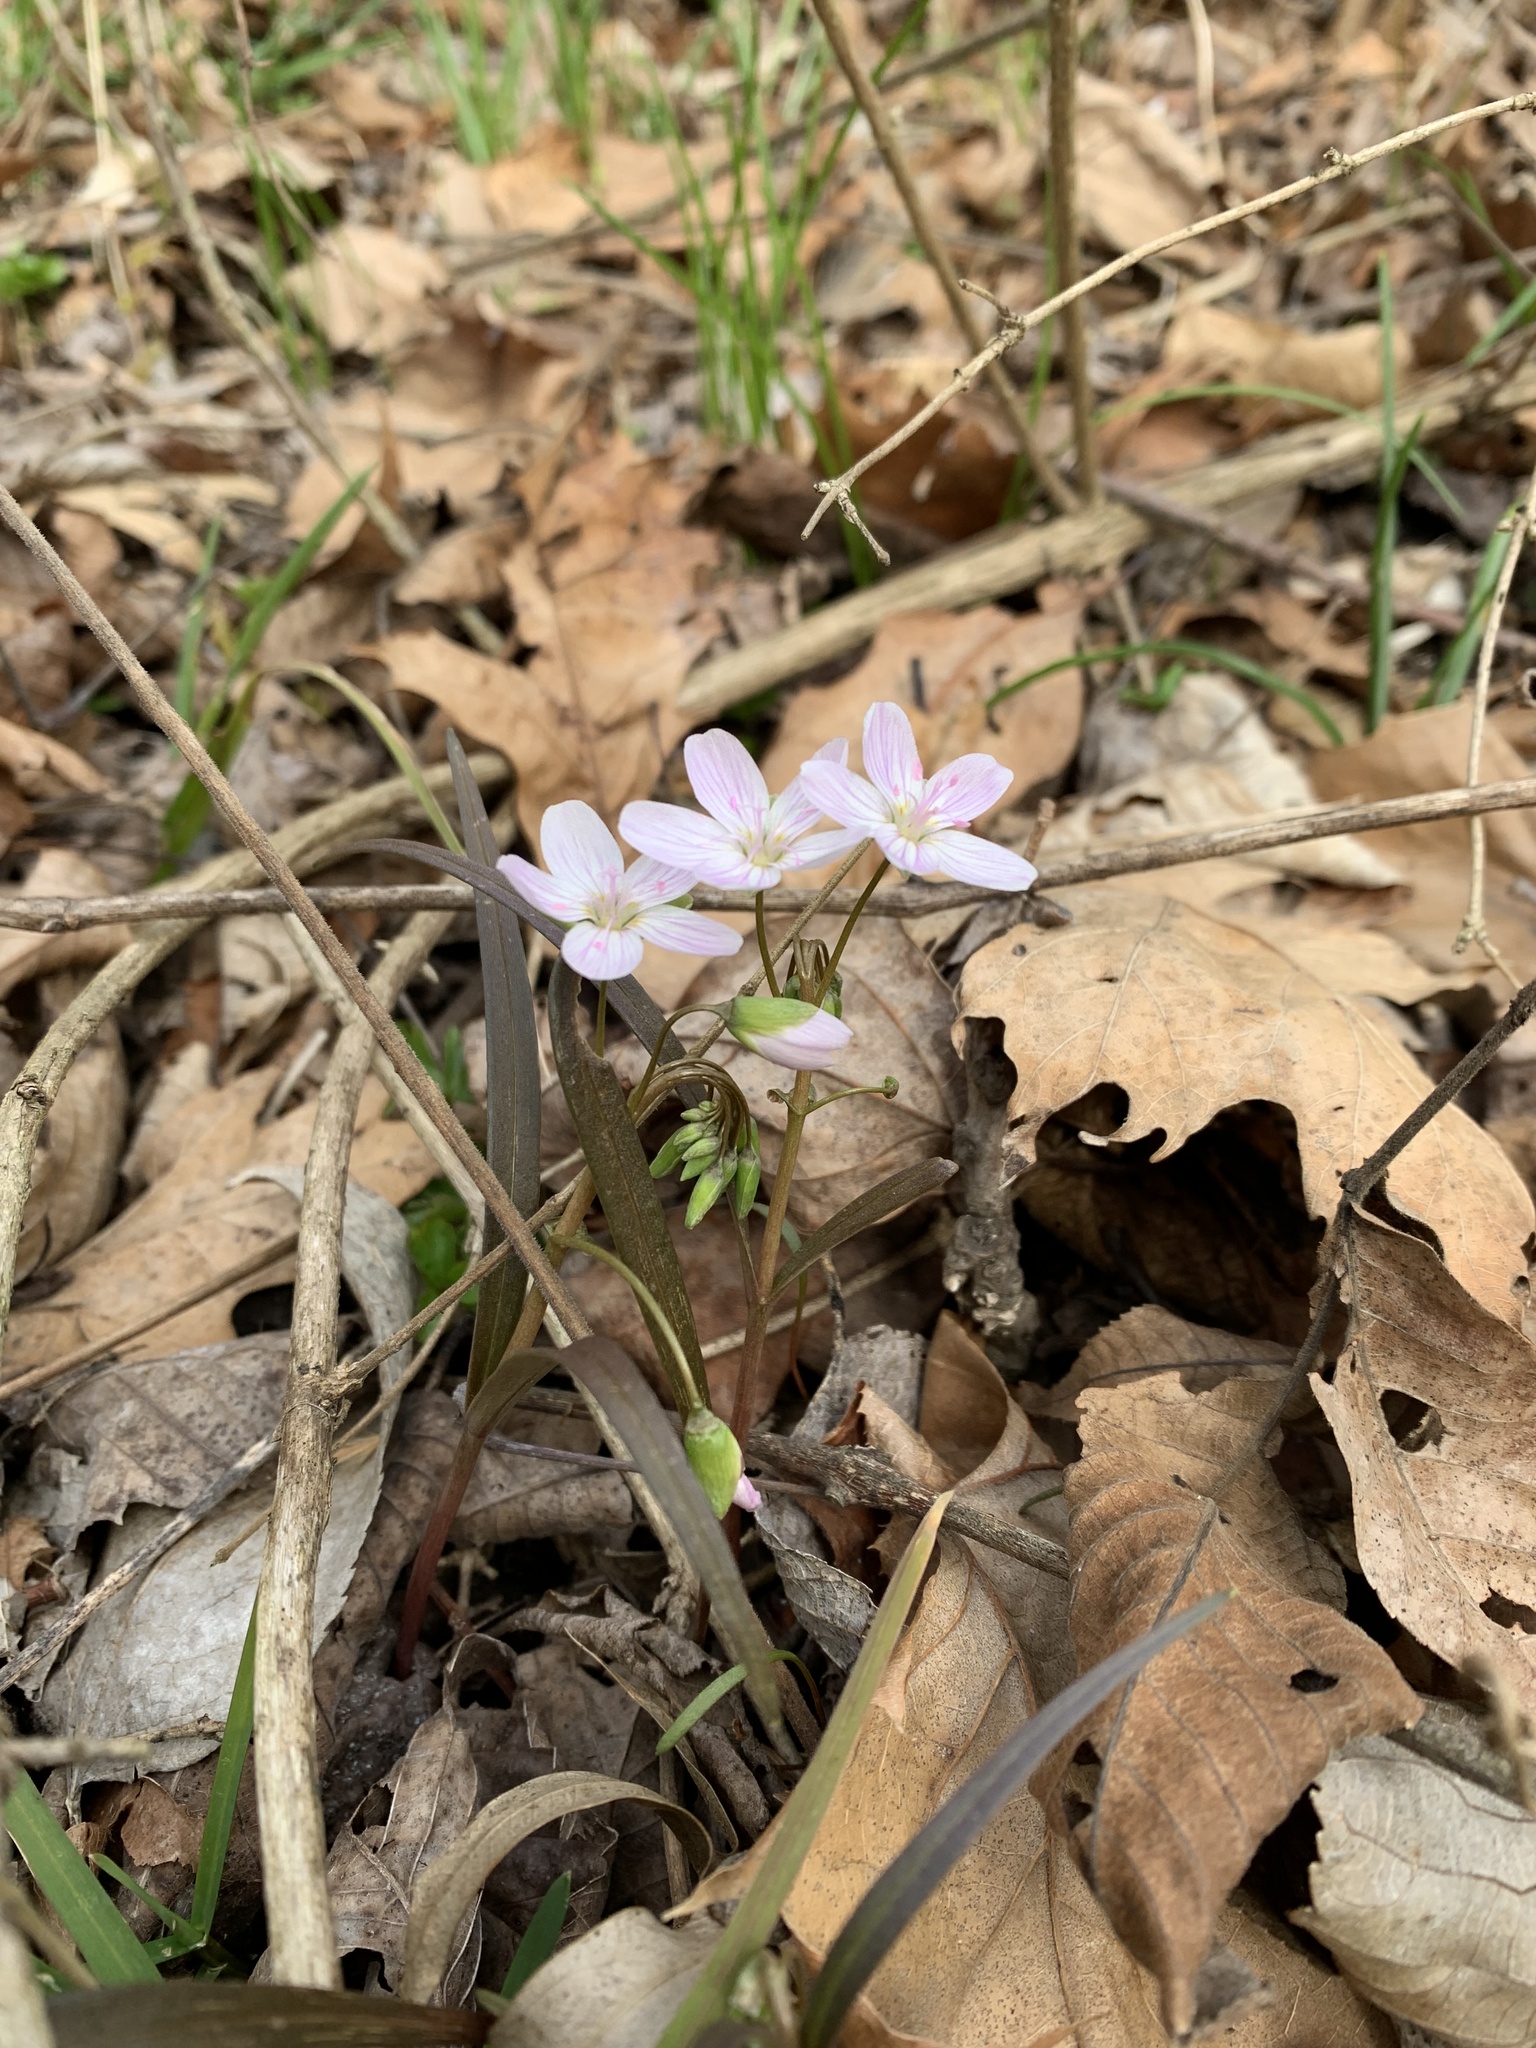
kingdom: Plantae
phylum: Tracheophyta
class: Magnoliopsida
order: Caryophyllales
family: Montiaceae
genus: Claytonia
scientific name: Claytonia virginica
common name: Virginia springbeauty
